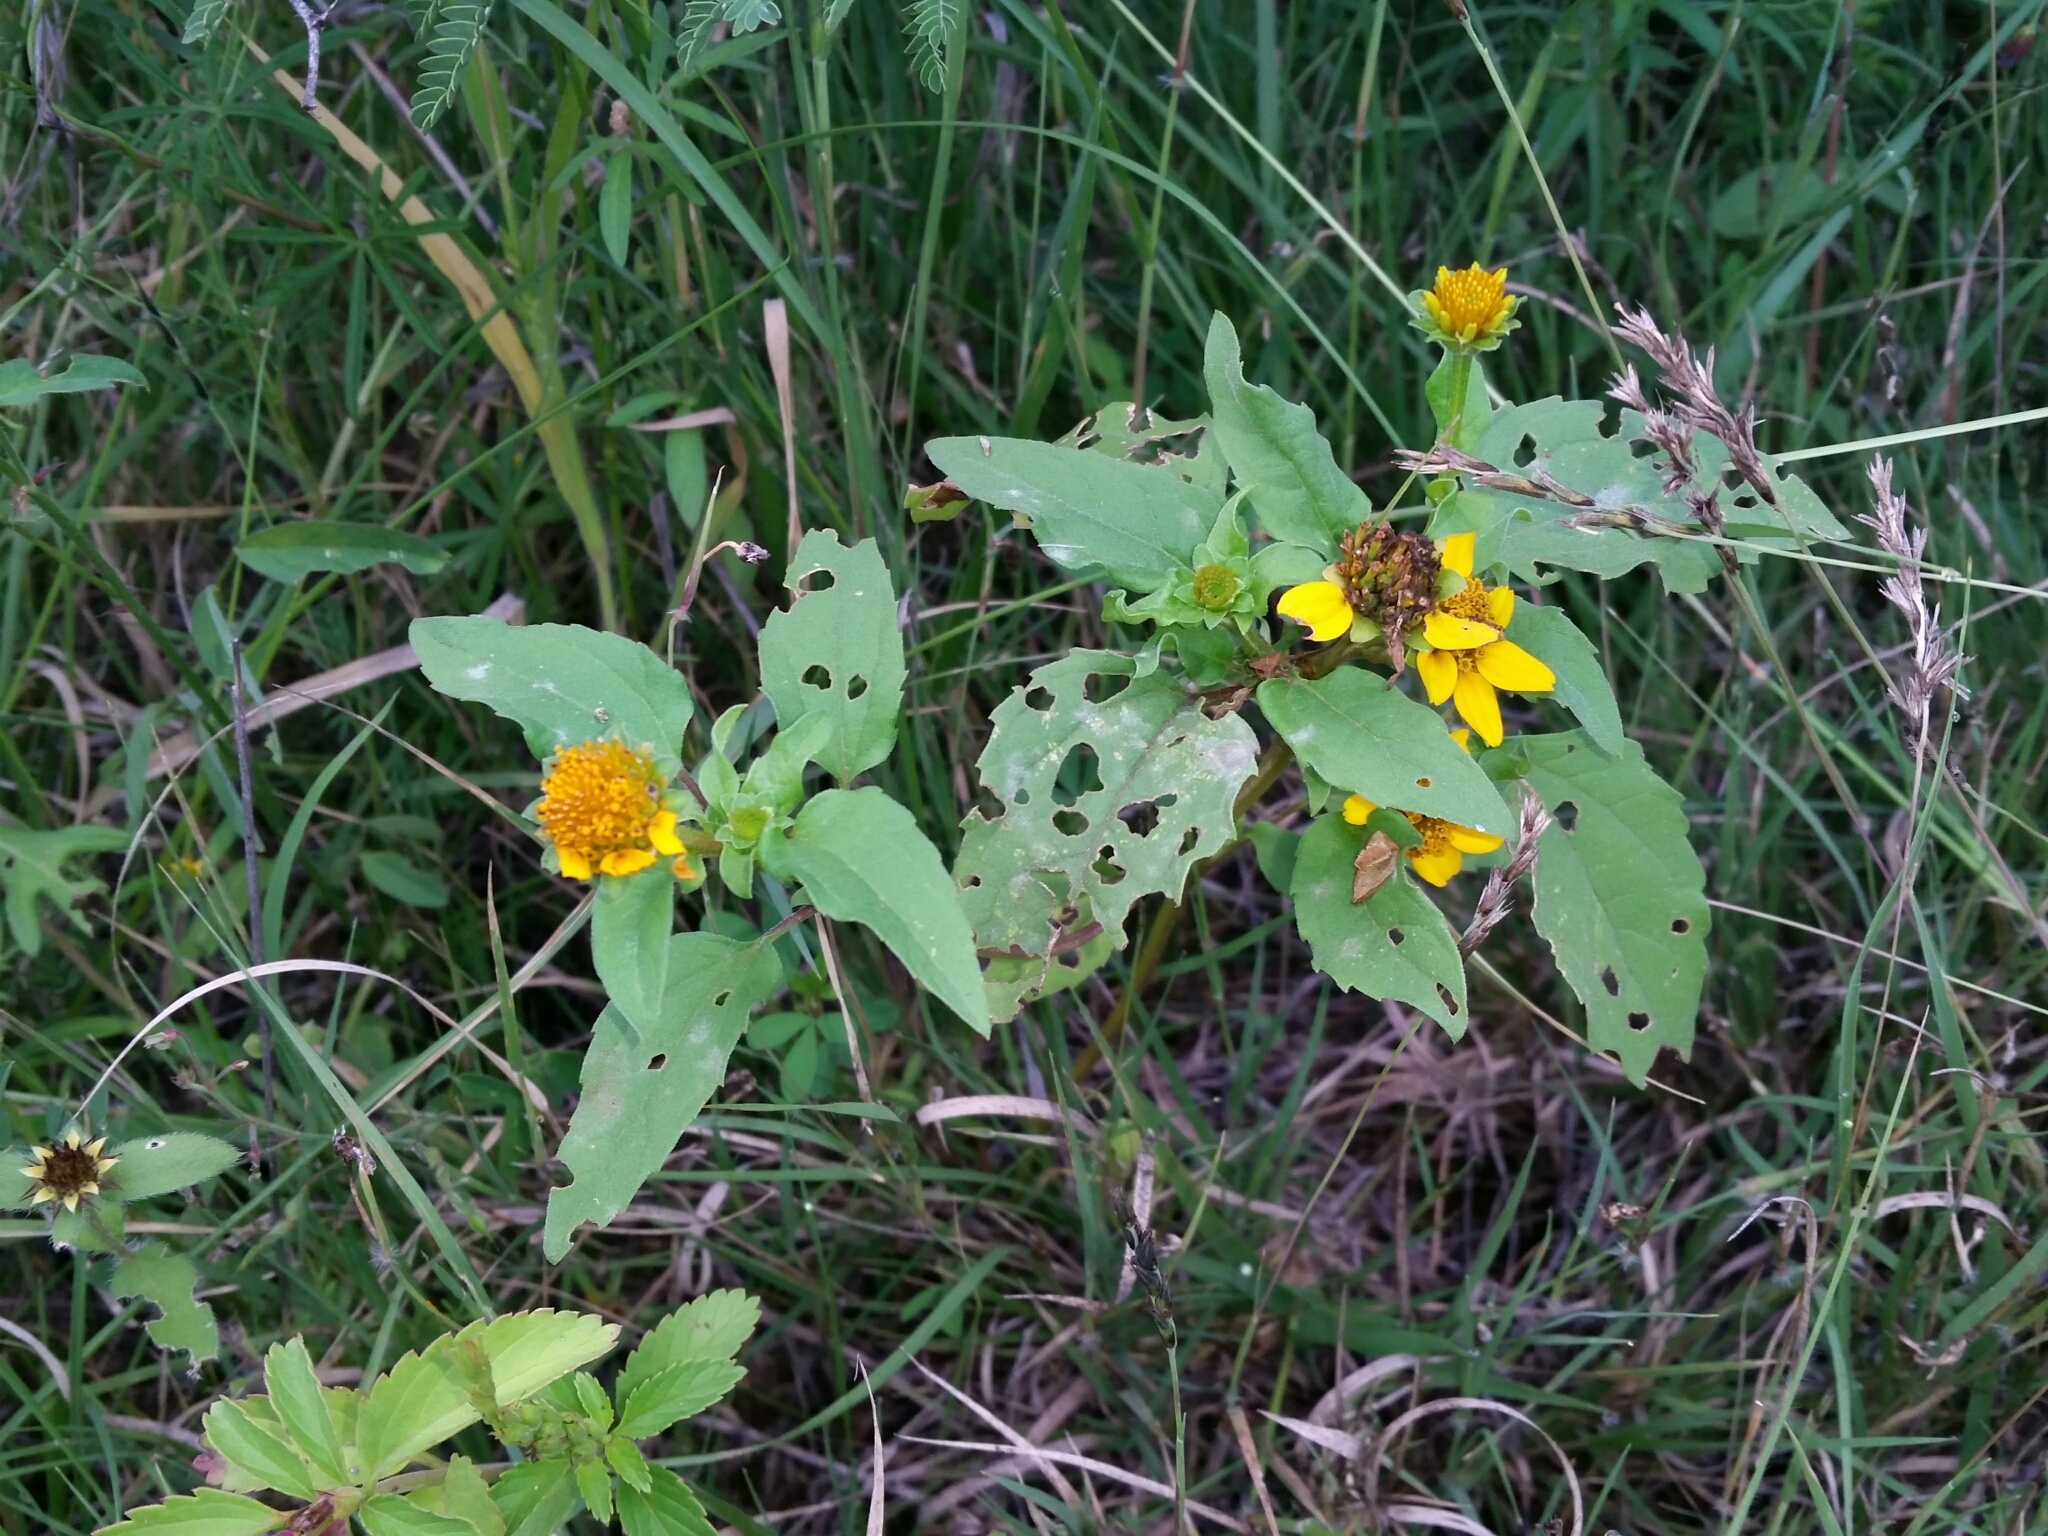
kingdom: Plantae
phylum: Tracheophyta
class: Magnoliopsida
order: Asterales
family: Asteraceae
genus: Heliopsis
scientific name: Heliopsis annua
